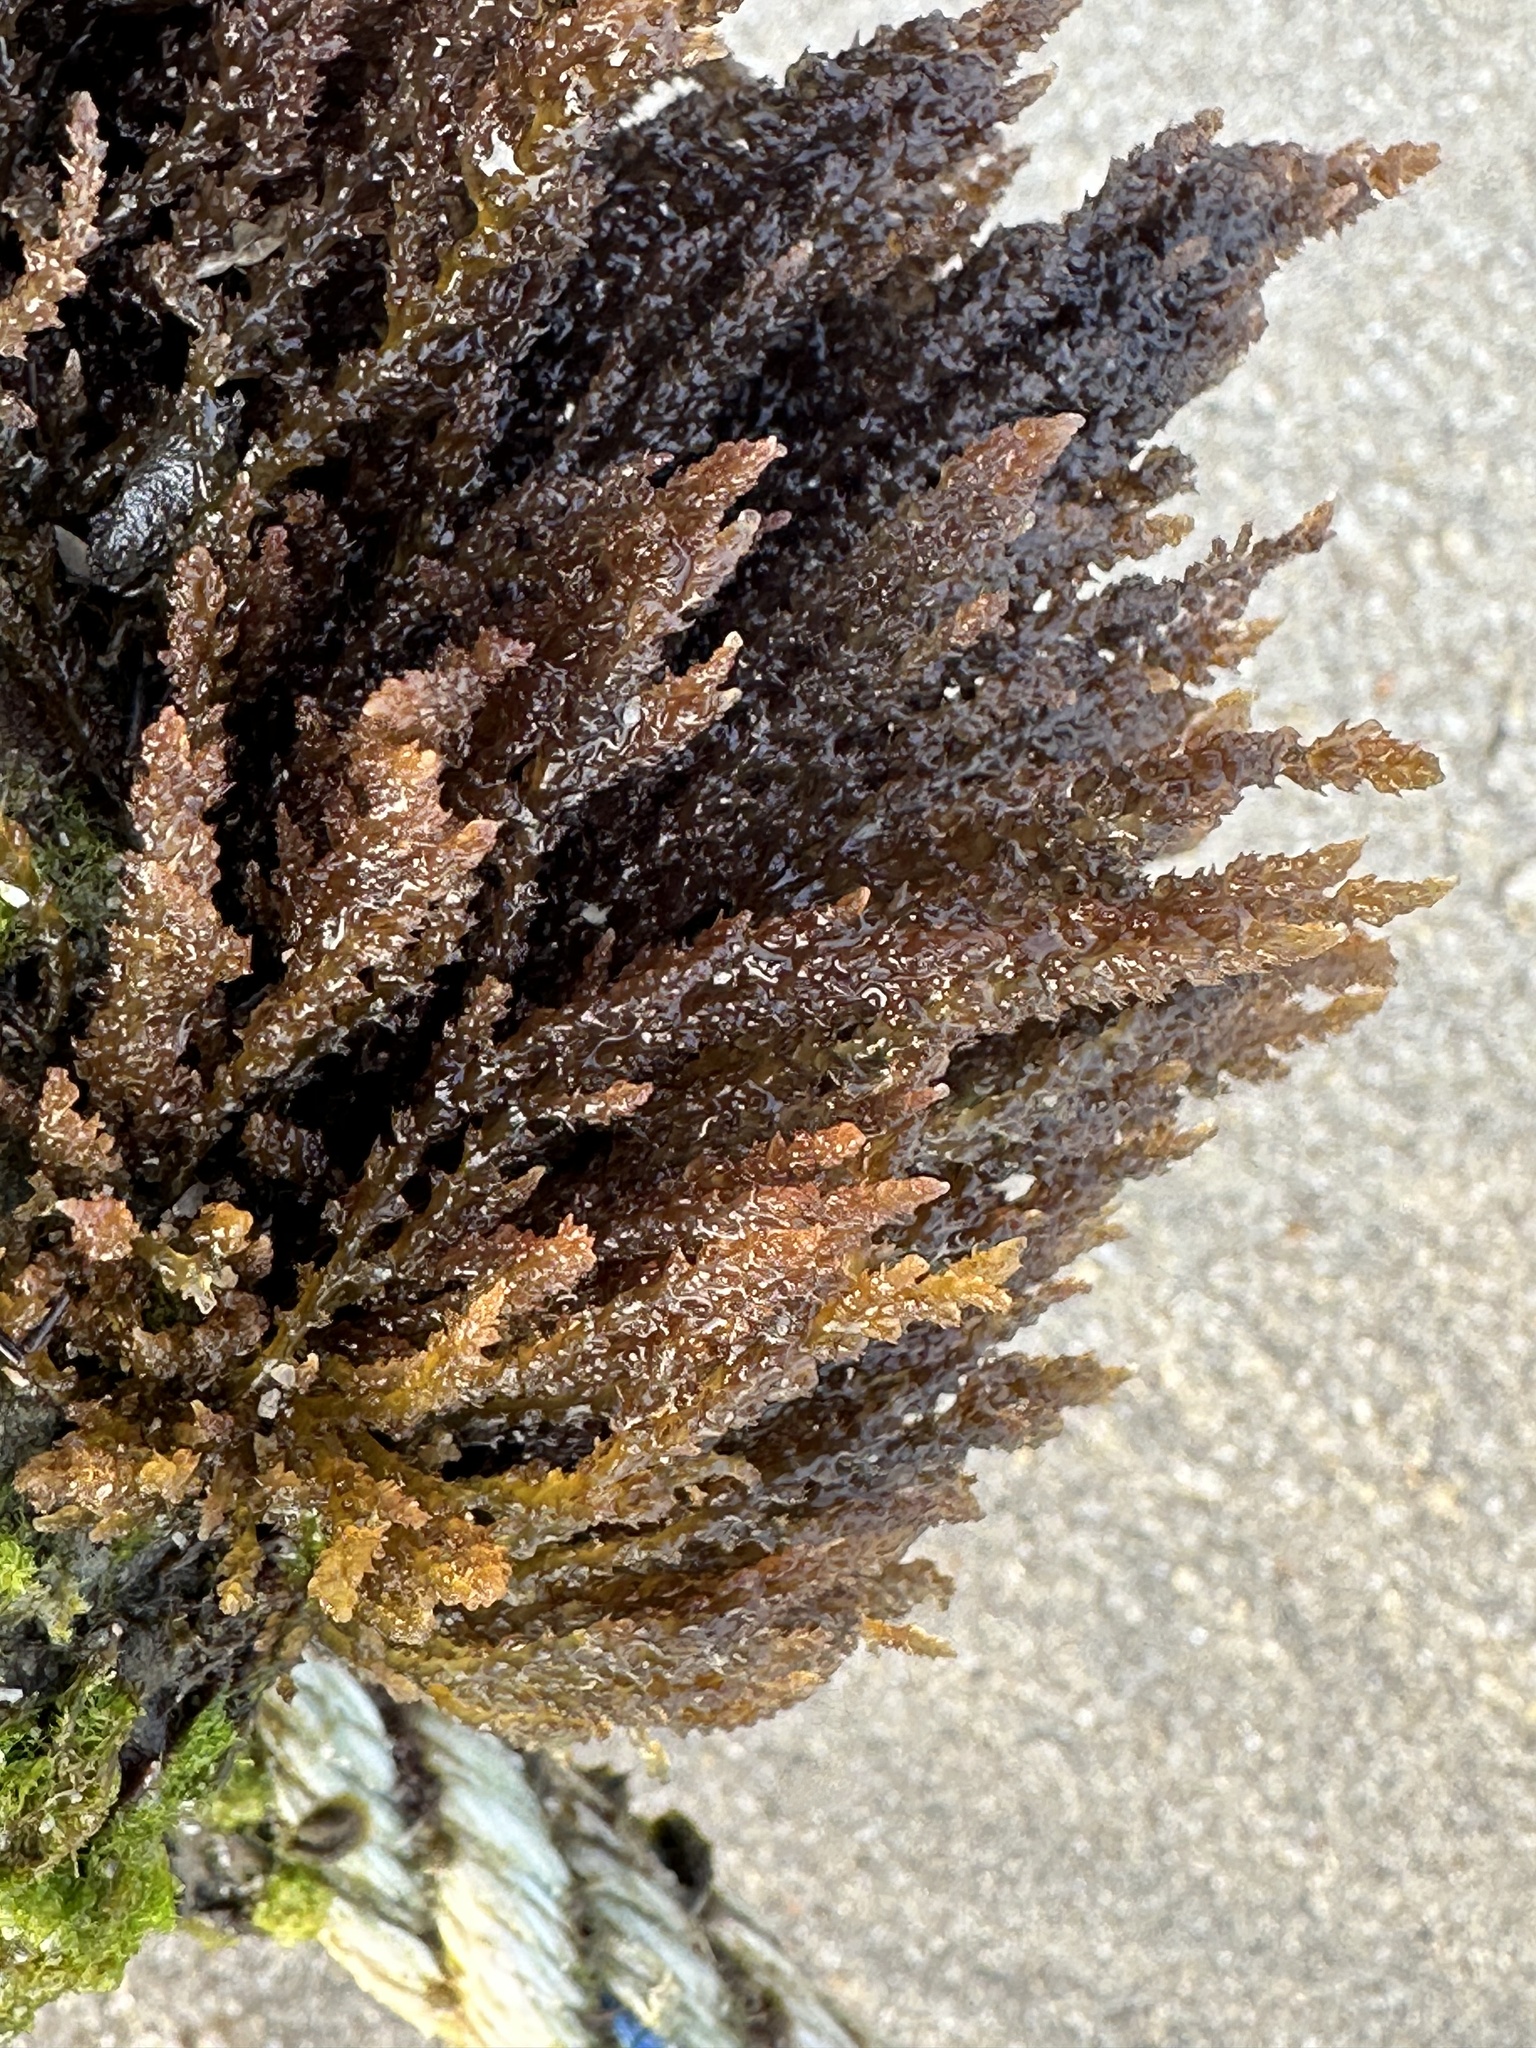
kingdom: Plantae
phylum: Rhodophyta
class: Florideophyceae
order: Ceramiales
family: Rhodomelaceae
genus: Acanthophora
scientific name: Acanthophora spicifera
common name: Red algae
